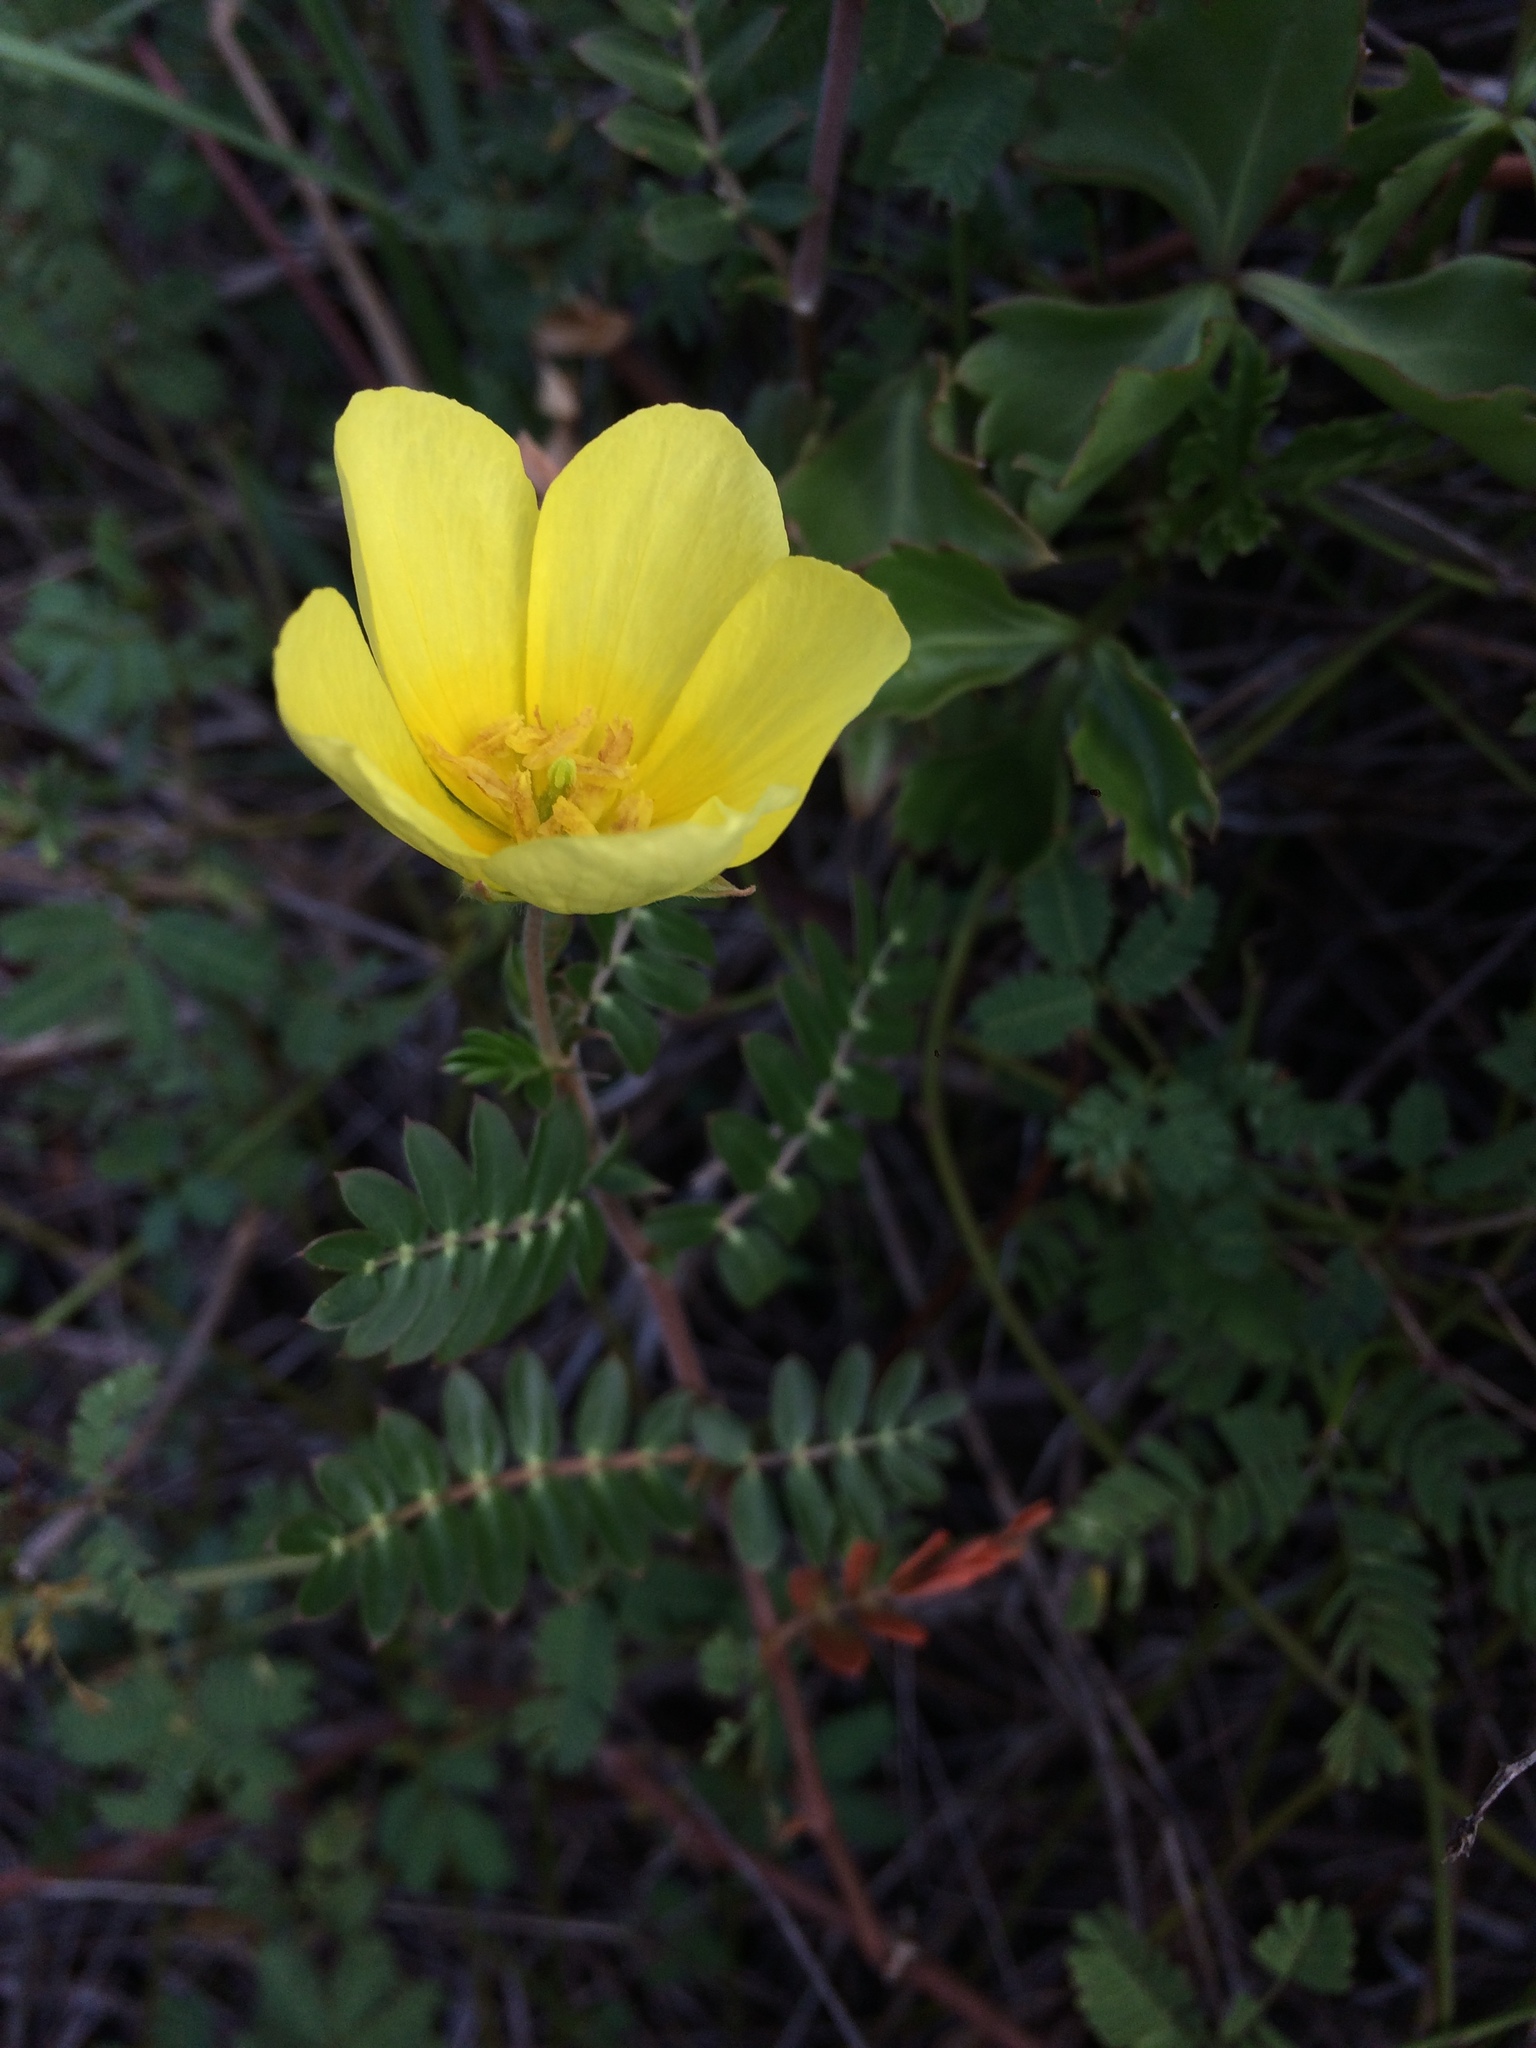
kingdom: Plantae
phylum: Tracheophyta
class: Magnoliopsida
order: Zygophyllales
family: Zygophyllaceae
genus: Tribulus
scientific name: Tribulus cistoides
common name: Jamaican feverplant
